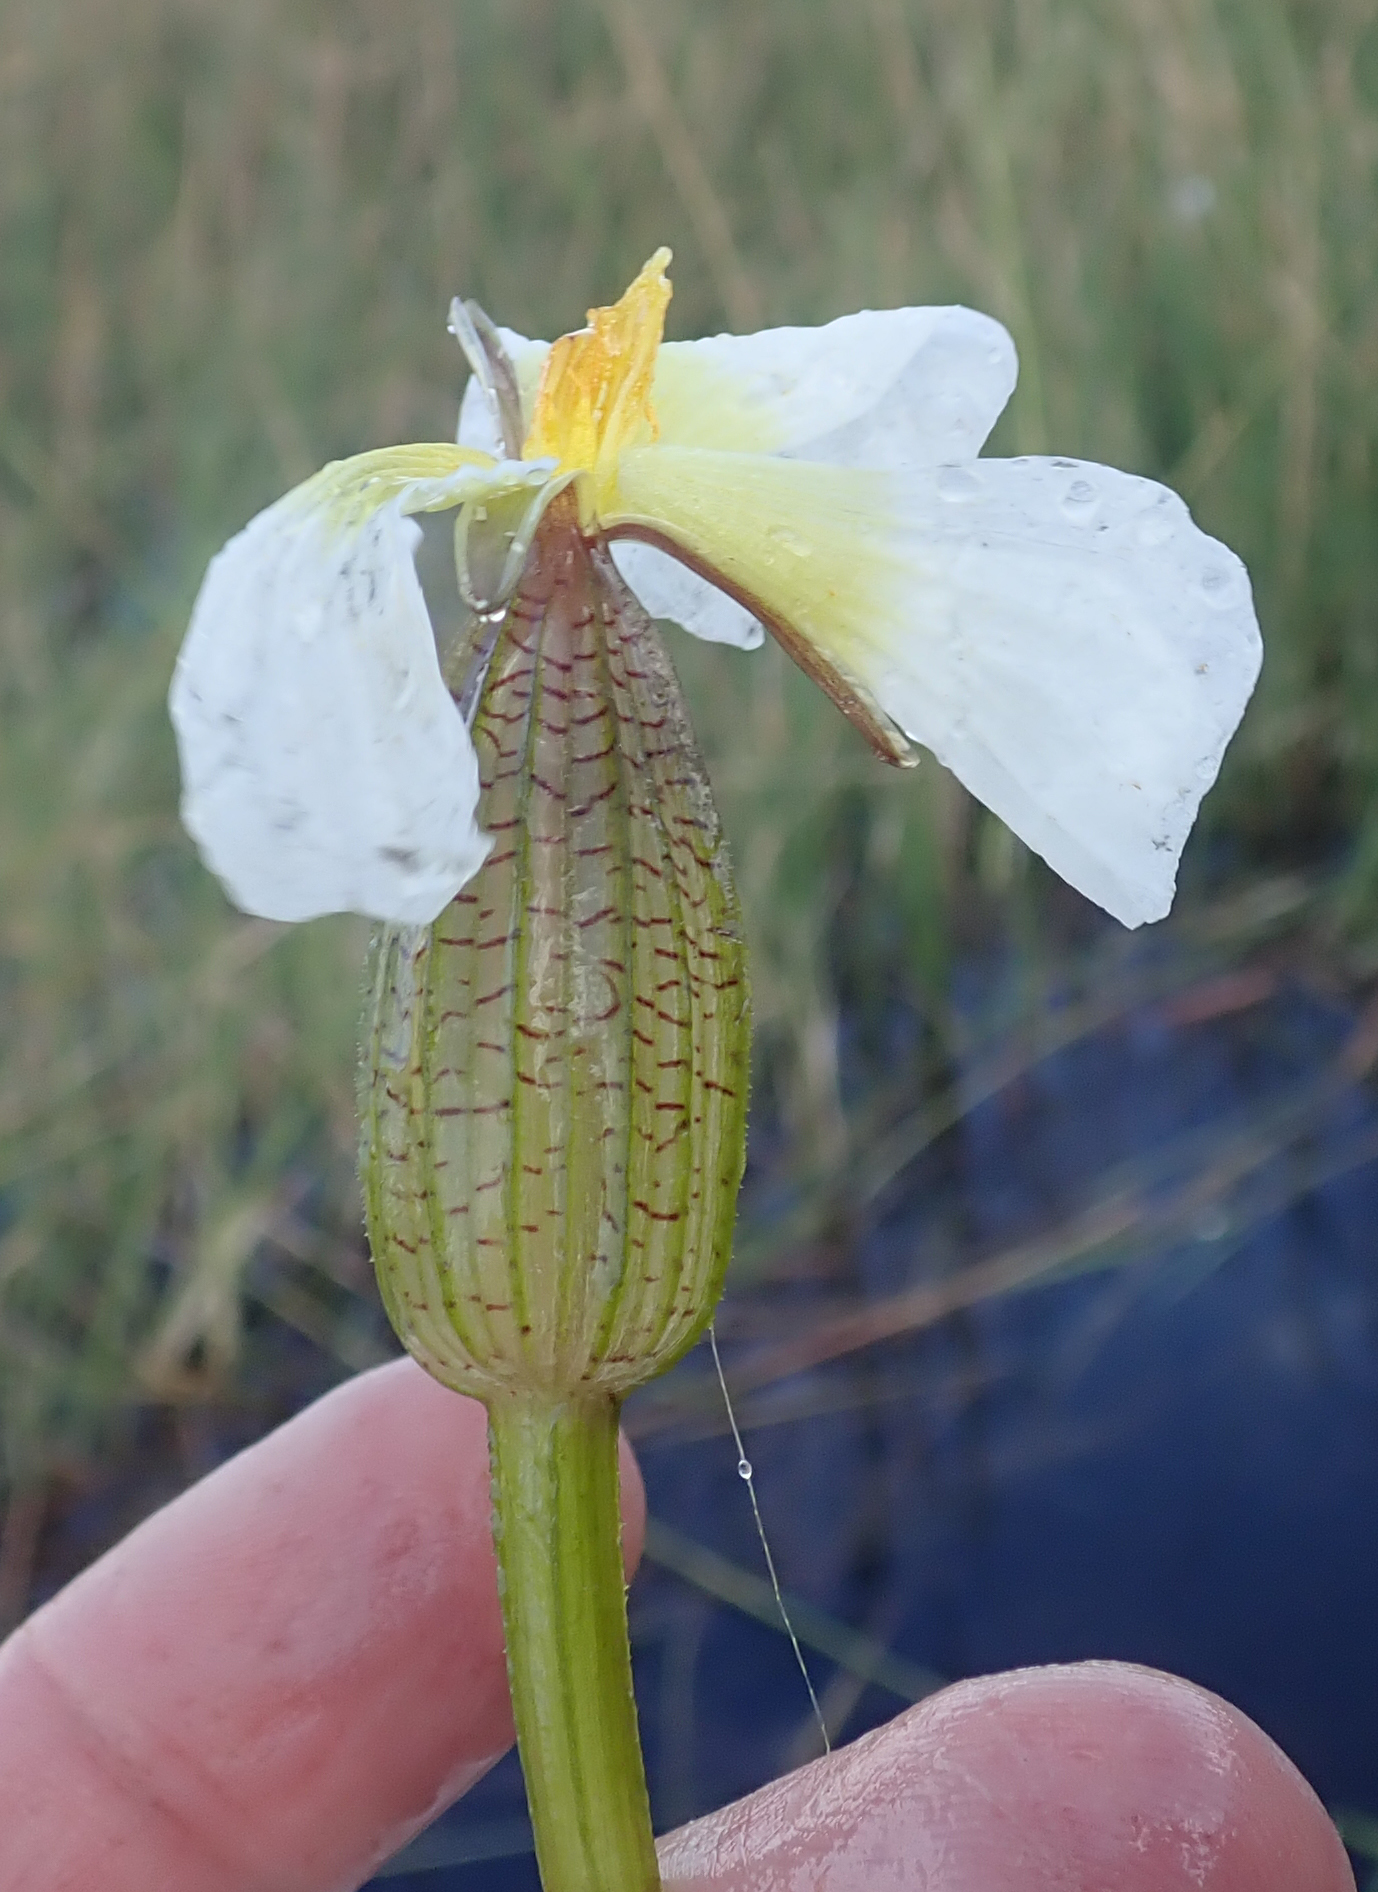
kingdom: Plantae
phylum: Tracheophyta
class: Liliopsida
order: Alismatales
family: Hydrocharitaceae
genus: Ottelia
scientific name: Ottelia ulvifolia
